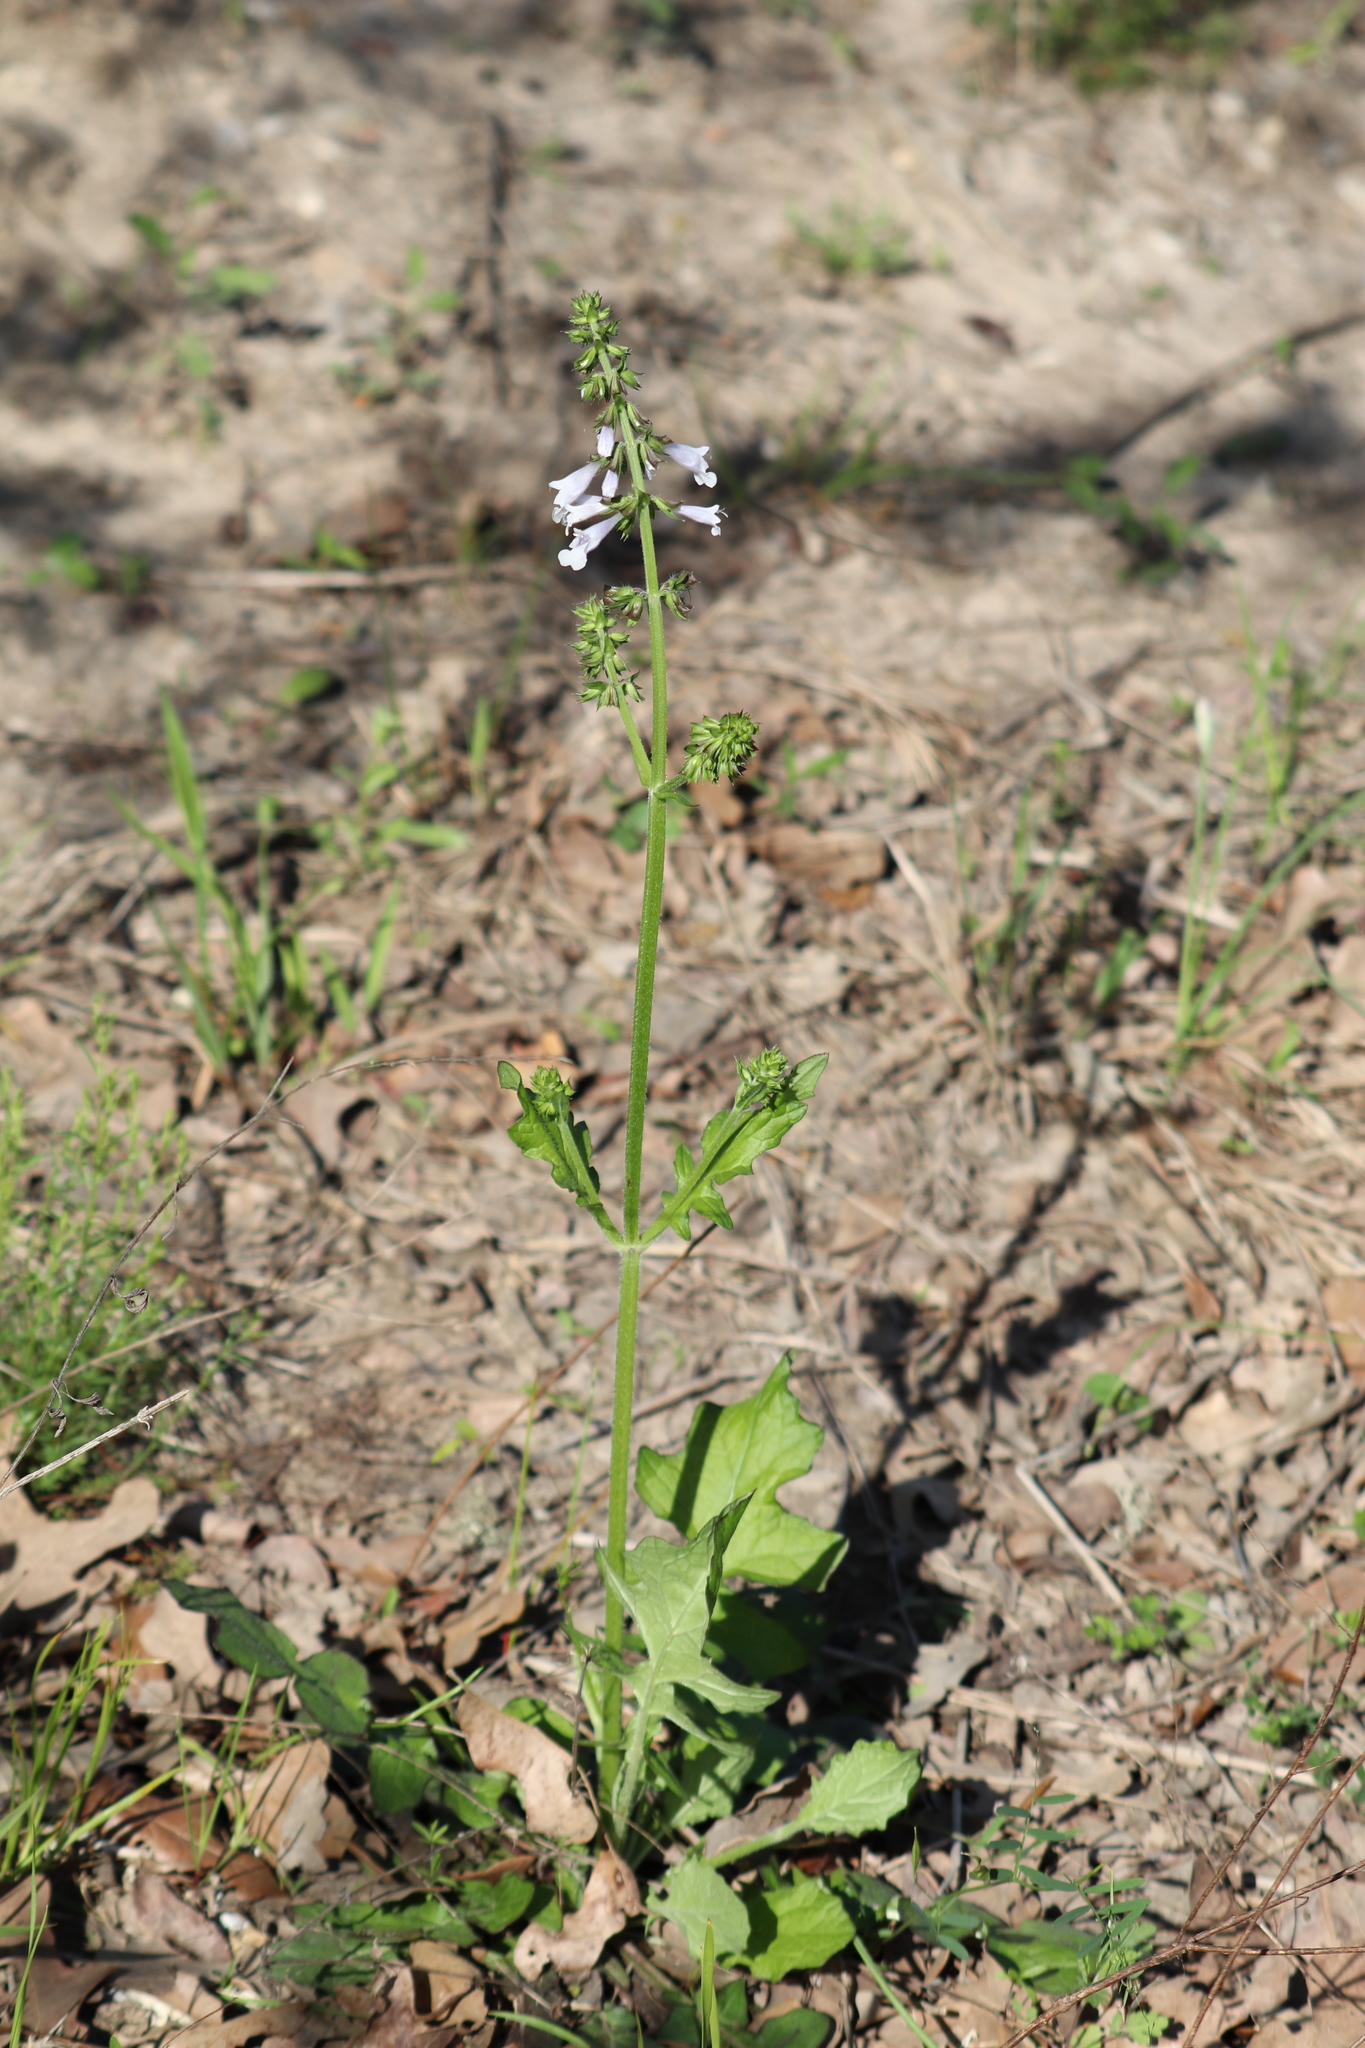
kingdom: Plantae
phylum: Tracheophyta
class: Magnoliopsida
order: Lamiales
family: Lamiaceae
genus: Salvia
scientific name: Salvia lyrata
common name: Cancerweed
